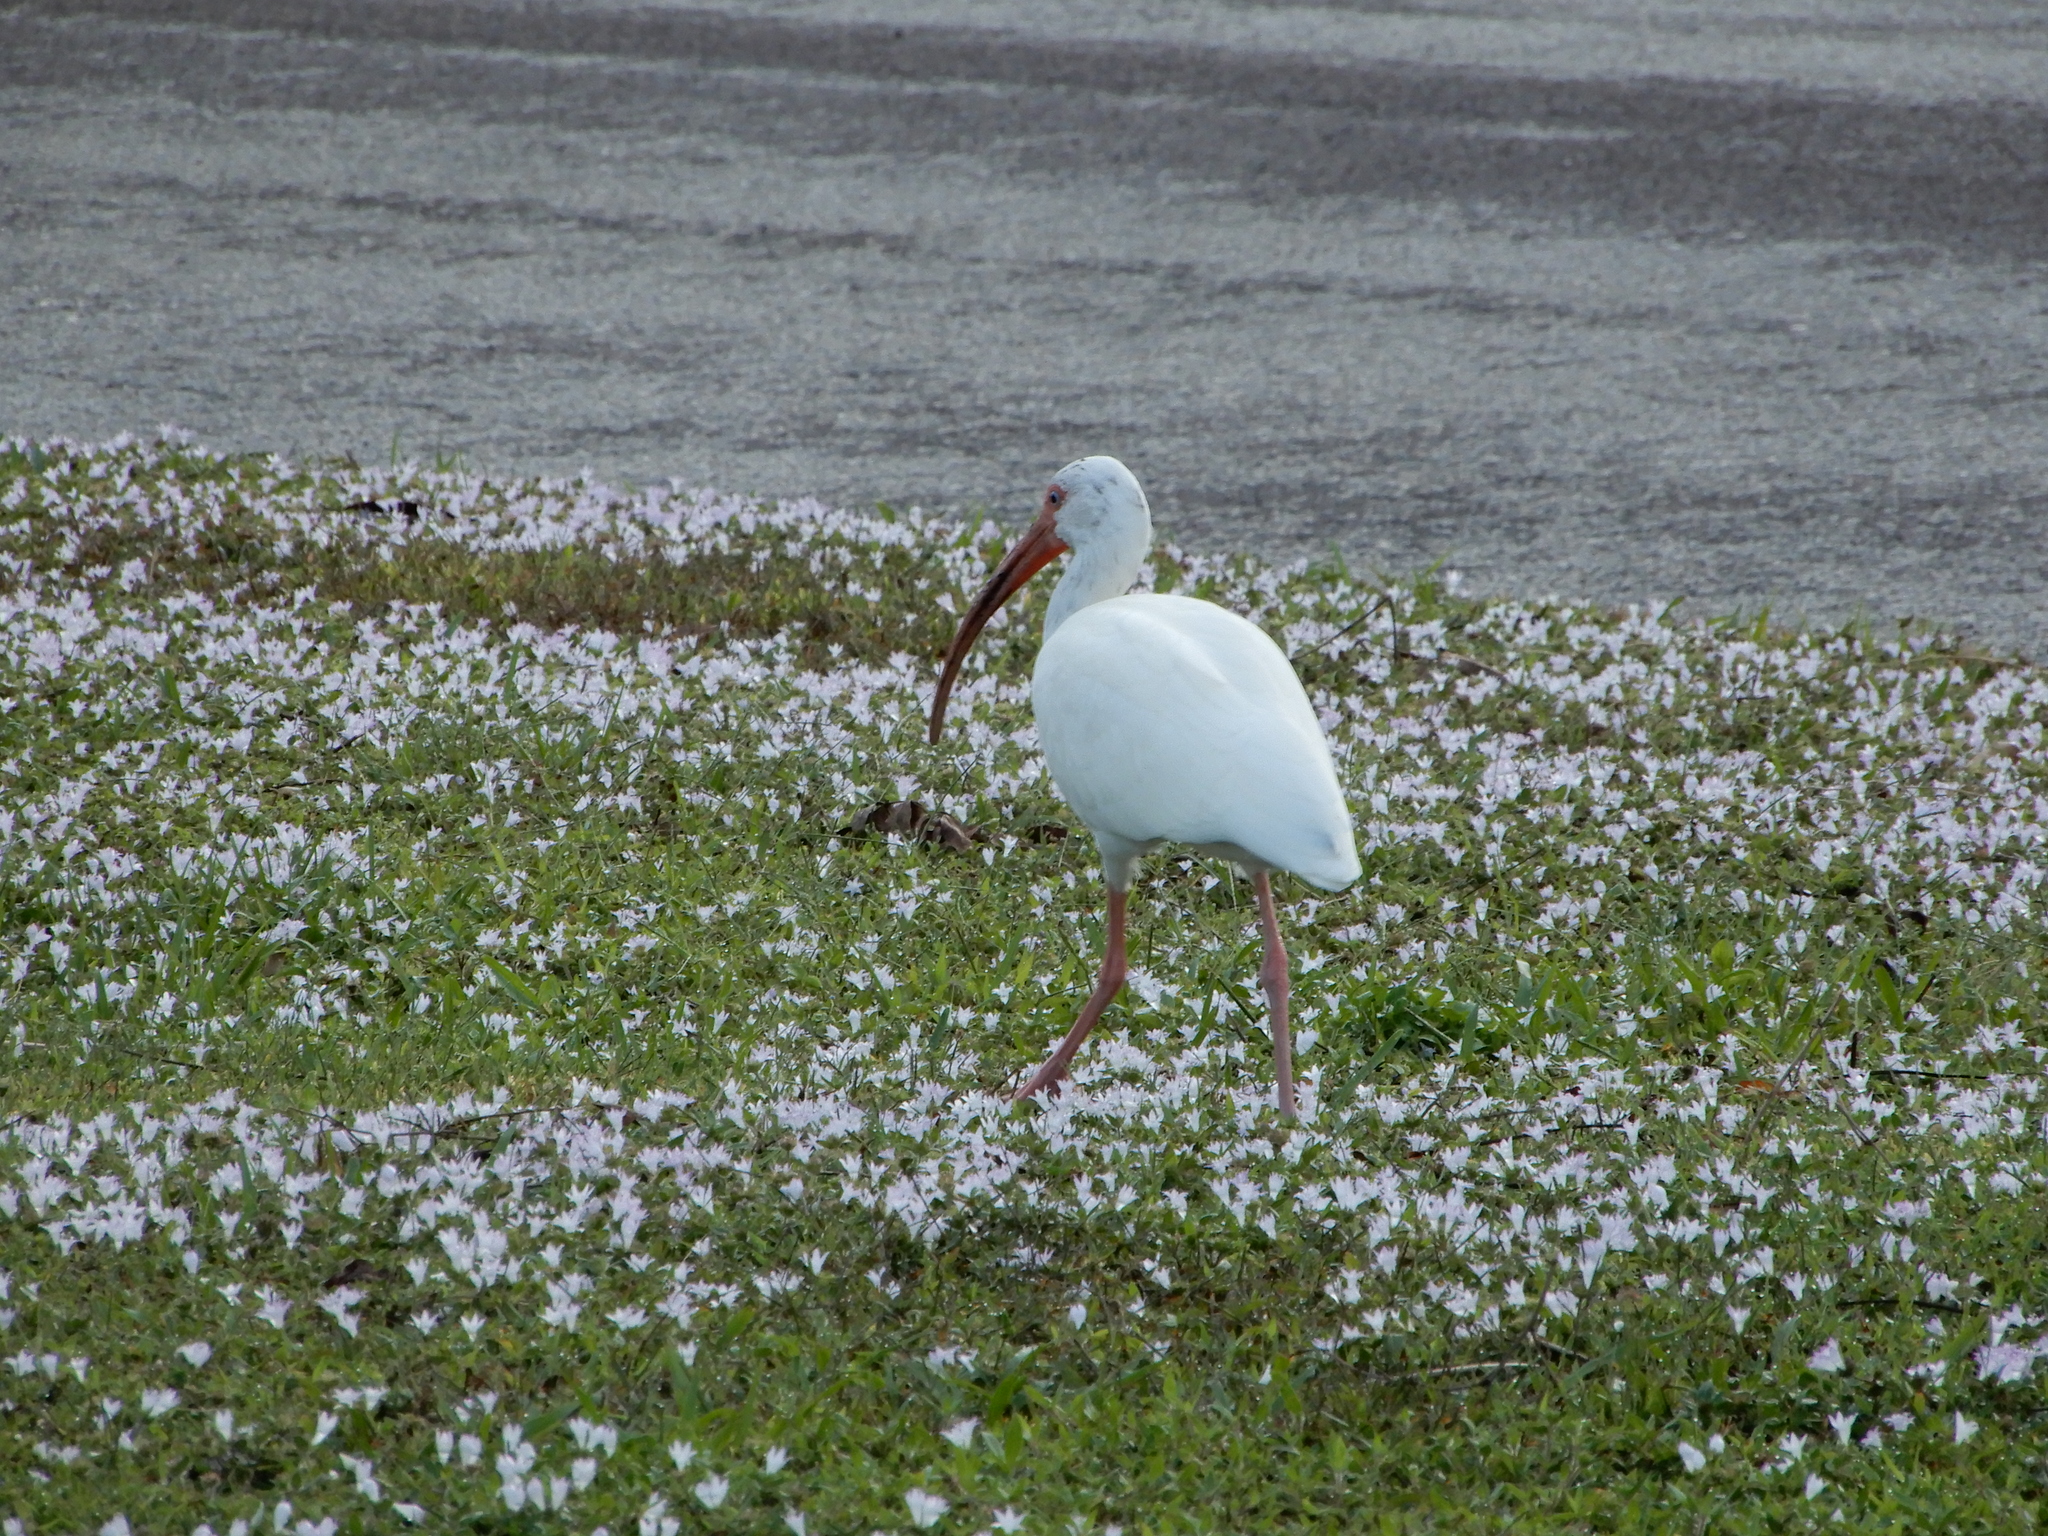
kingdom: Animalia
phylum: Chordata
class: Aves
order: Pelecaniformes
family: Threskiornithidae
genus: Eudocimus
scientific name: Eudocimus albus
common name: White ibis
